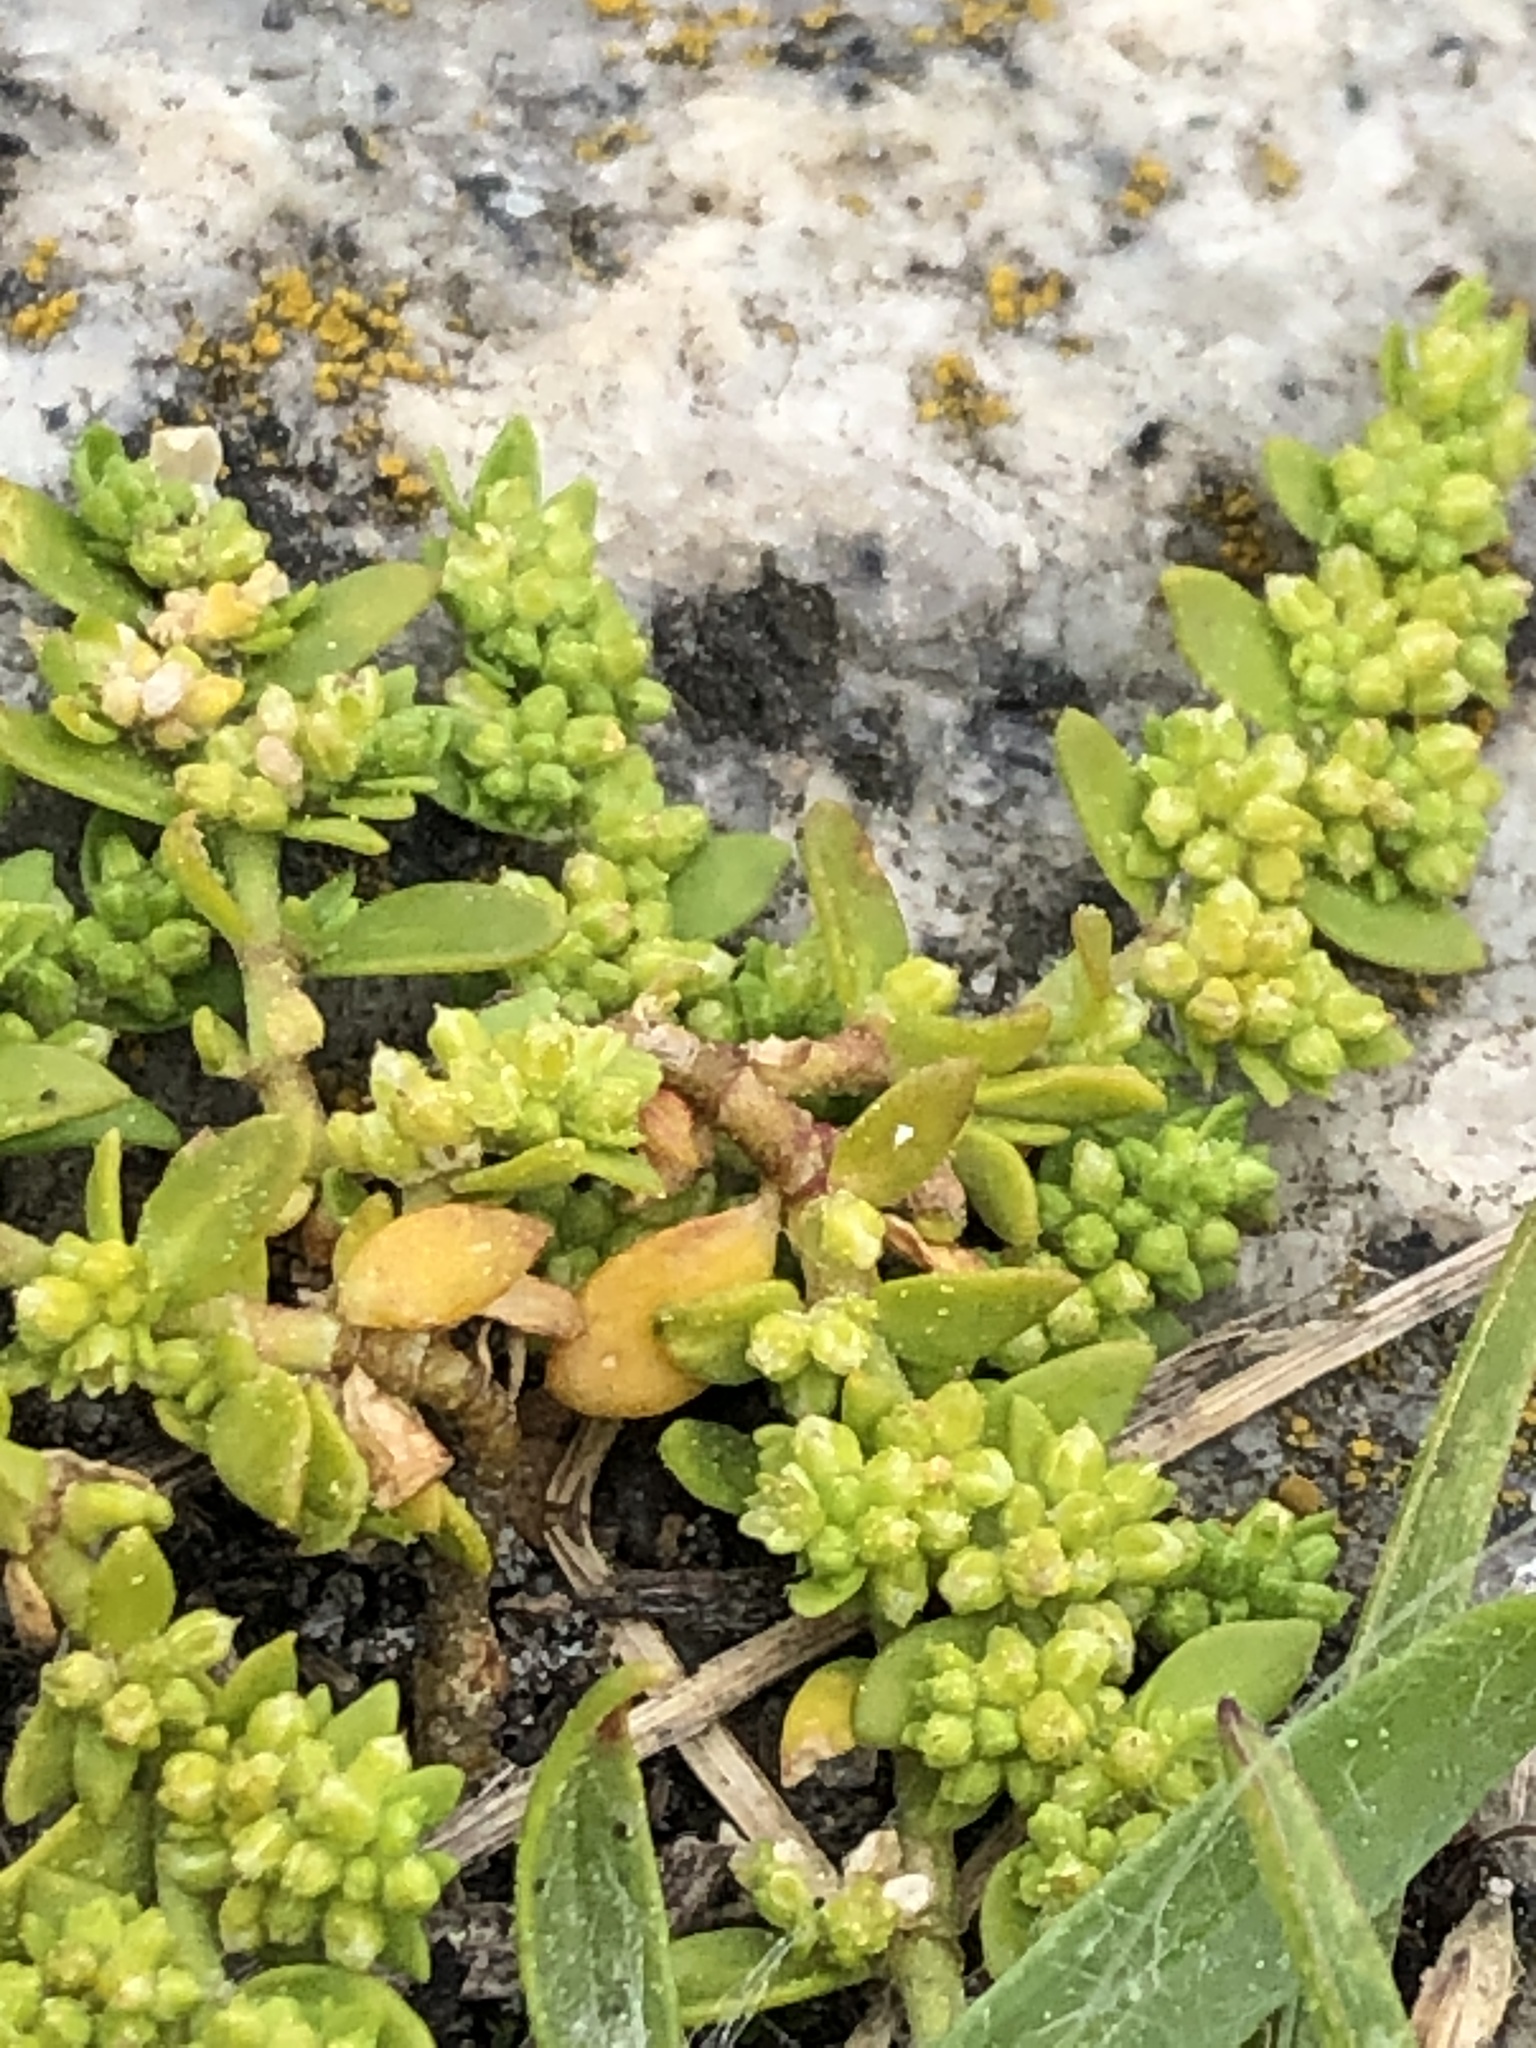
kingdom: Plantae
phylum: Tracheophyta
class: Magnoliopsida
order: Caryophyllales
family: Caryophyllaceae
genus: Herniaria
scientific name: Herniaria glabra
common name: Smooth rupturewort
